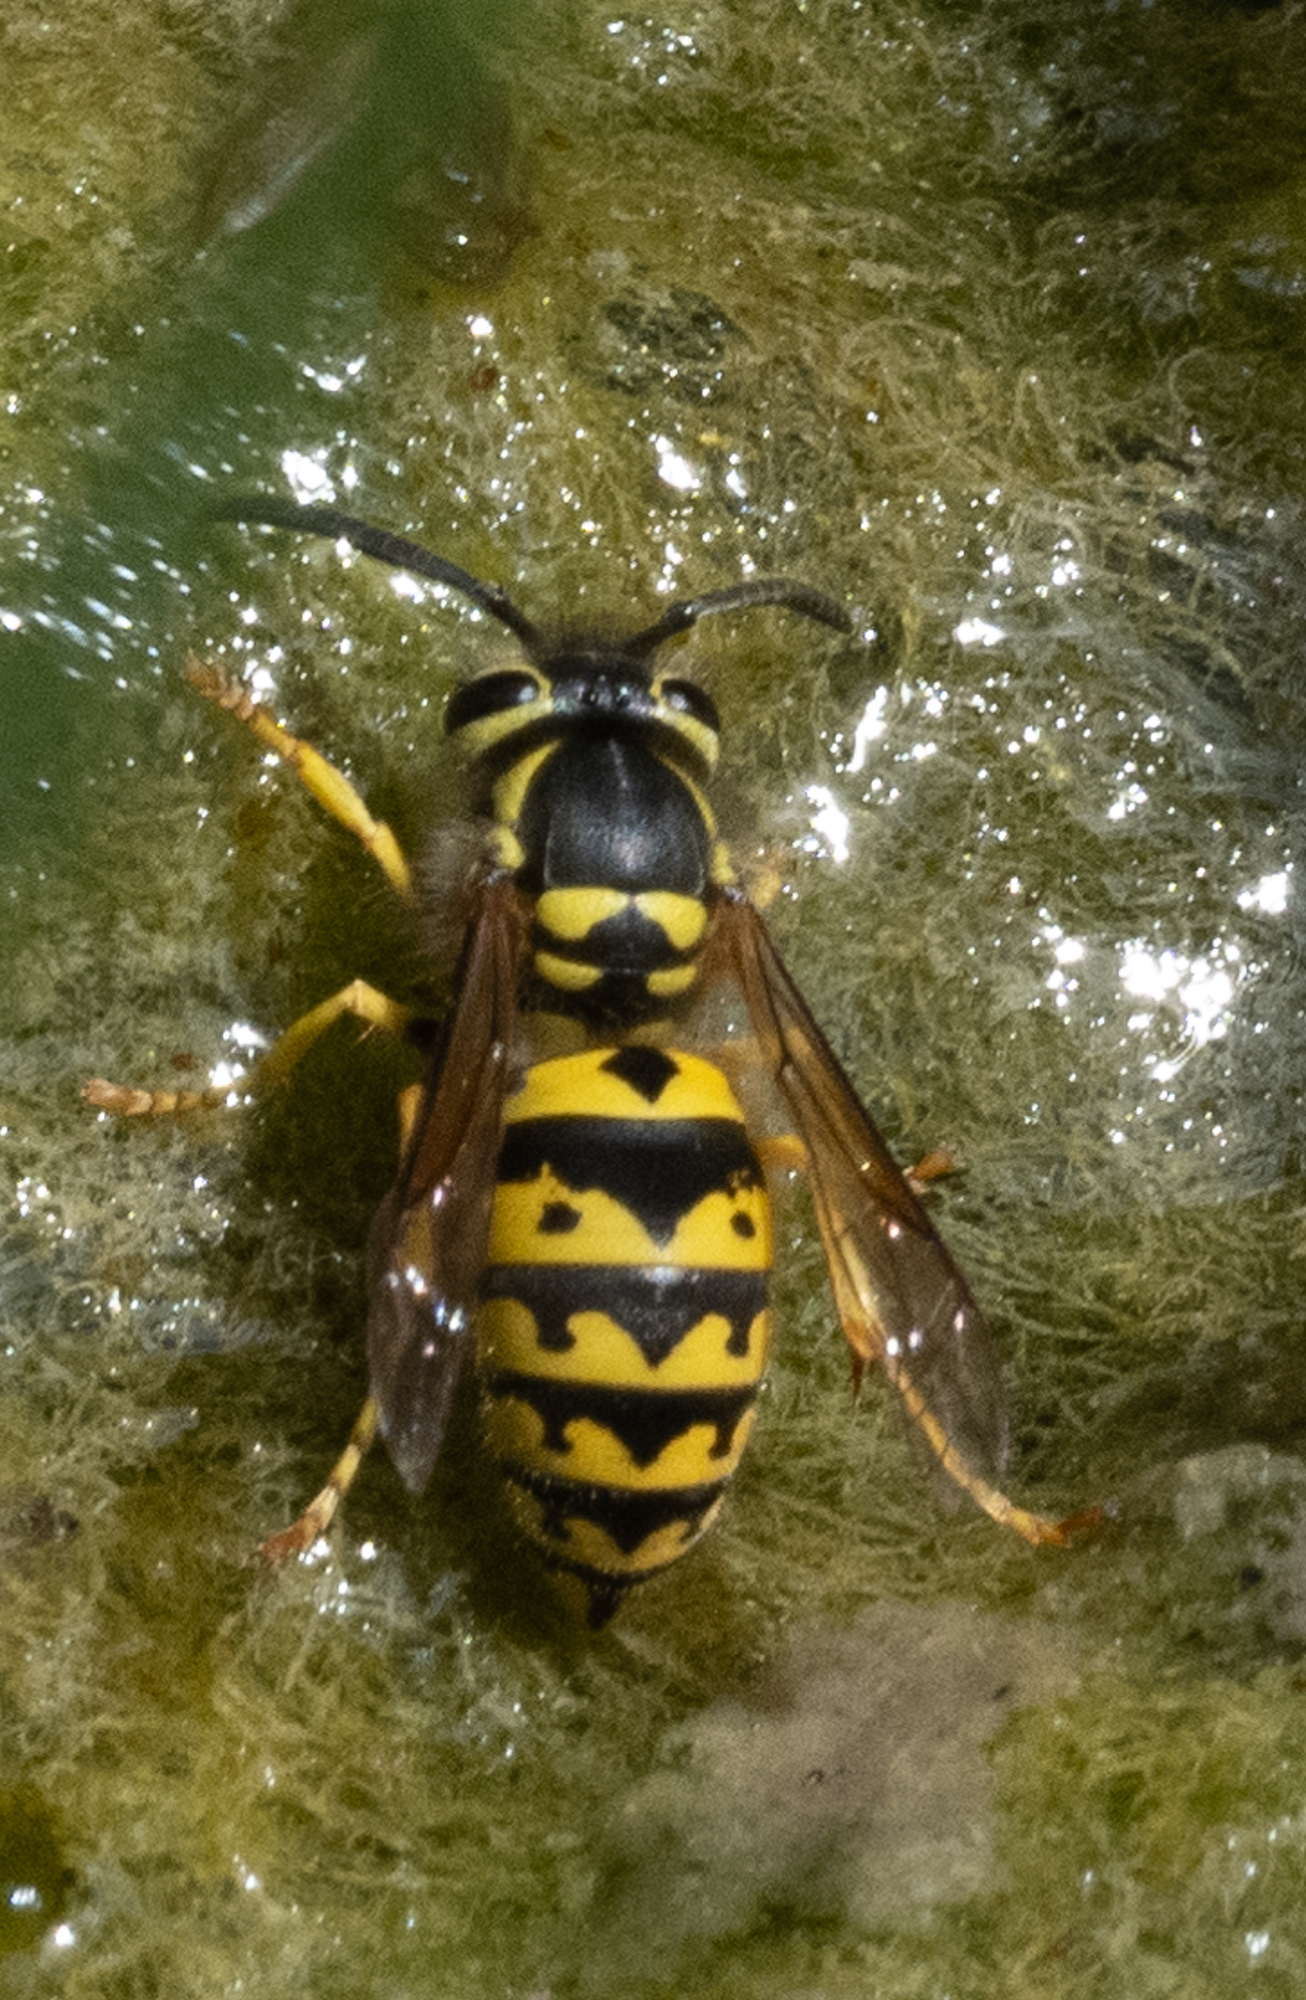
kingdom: Animalia
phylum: Arthropoda
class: Insecta
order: Hymenoptera
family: Vespidae
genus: Vespula
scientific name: Vespula pensylvanica
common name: Western yellowjacket
